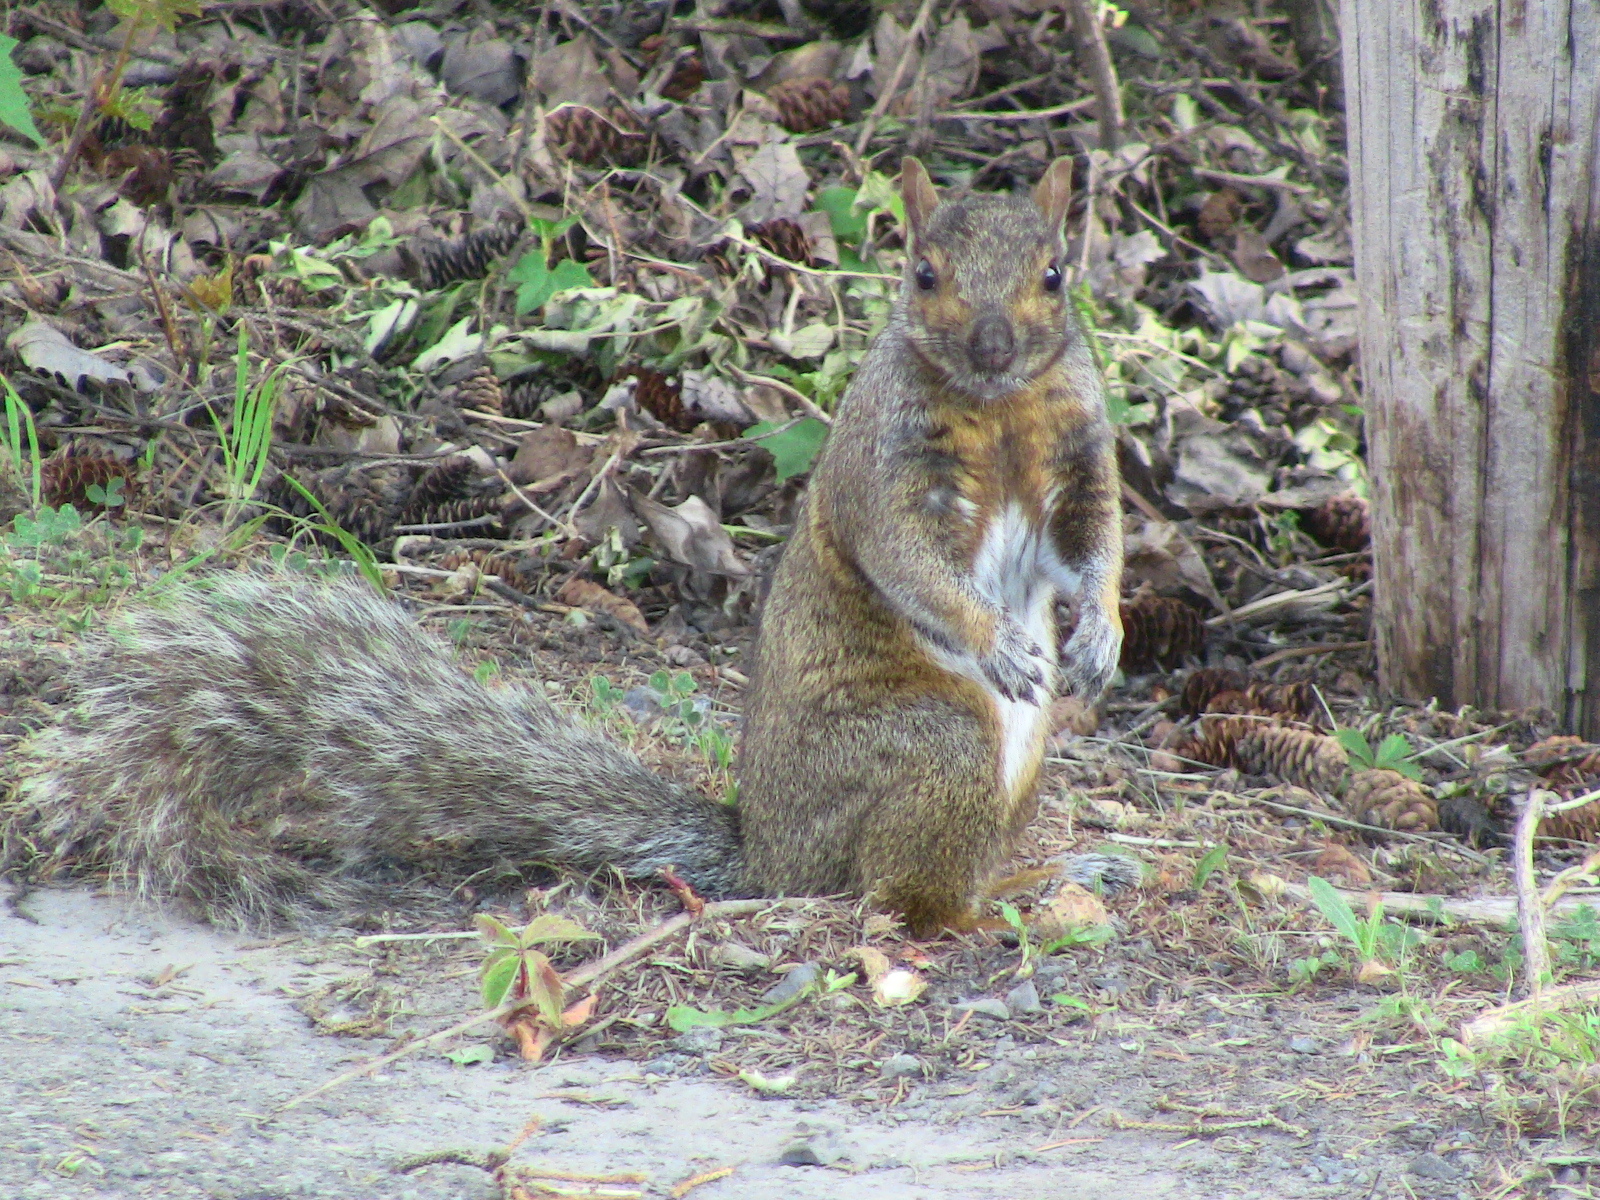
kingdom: Animalia
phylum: Chordata
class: Mammalia
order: Rodentia
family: Sciuridae
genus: Sciurus
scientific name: Sciurus carolinensis
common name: Eastern gray squirrel
